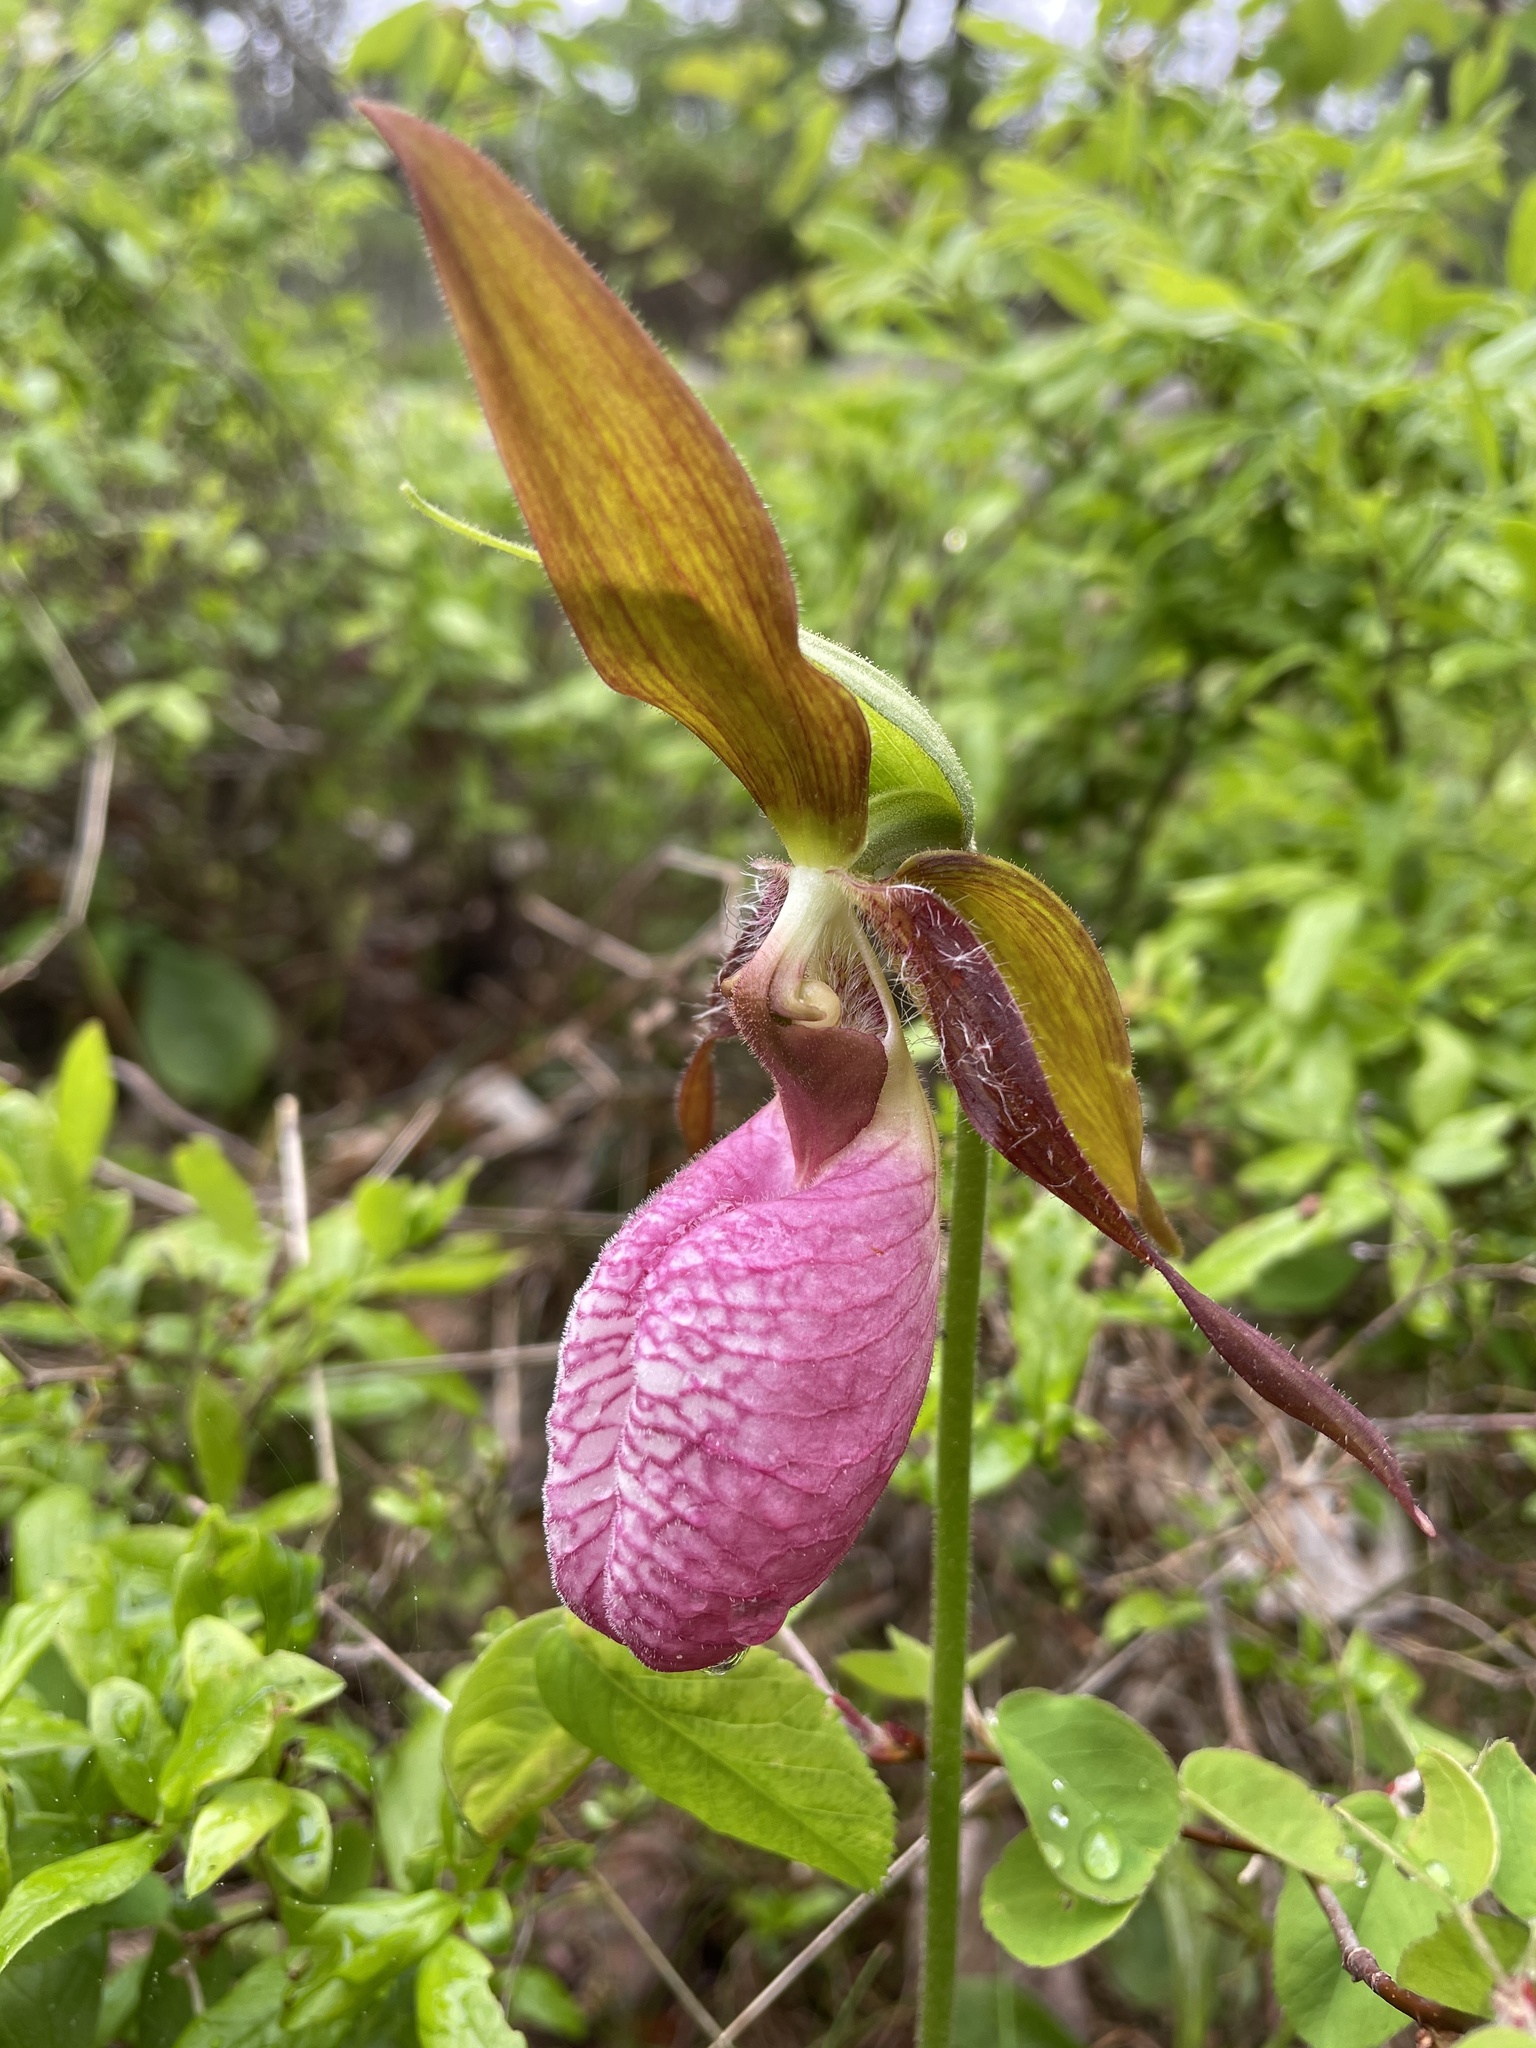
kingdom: Plantae
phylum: Tracheophyta
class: Liliopsida
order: Asparagales
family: Orchidaceae
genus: Cypripedium
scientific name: Cypripedium acaule
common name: Pink lady's-slipper
